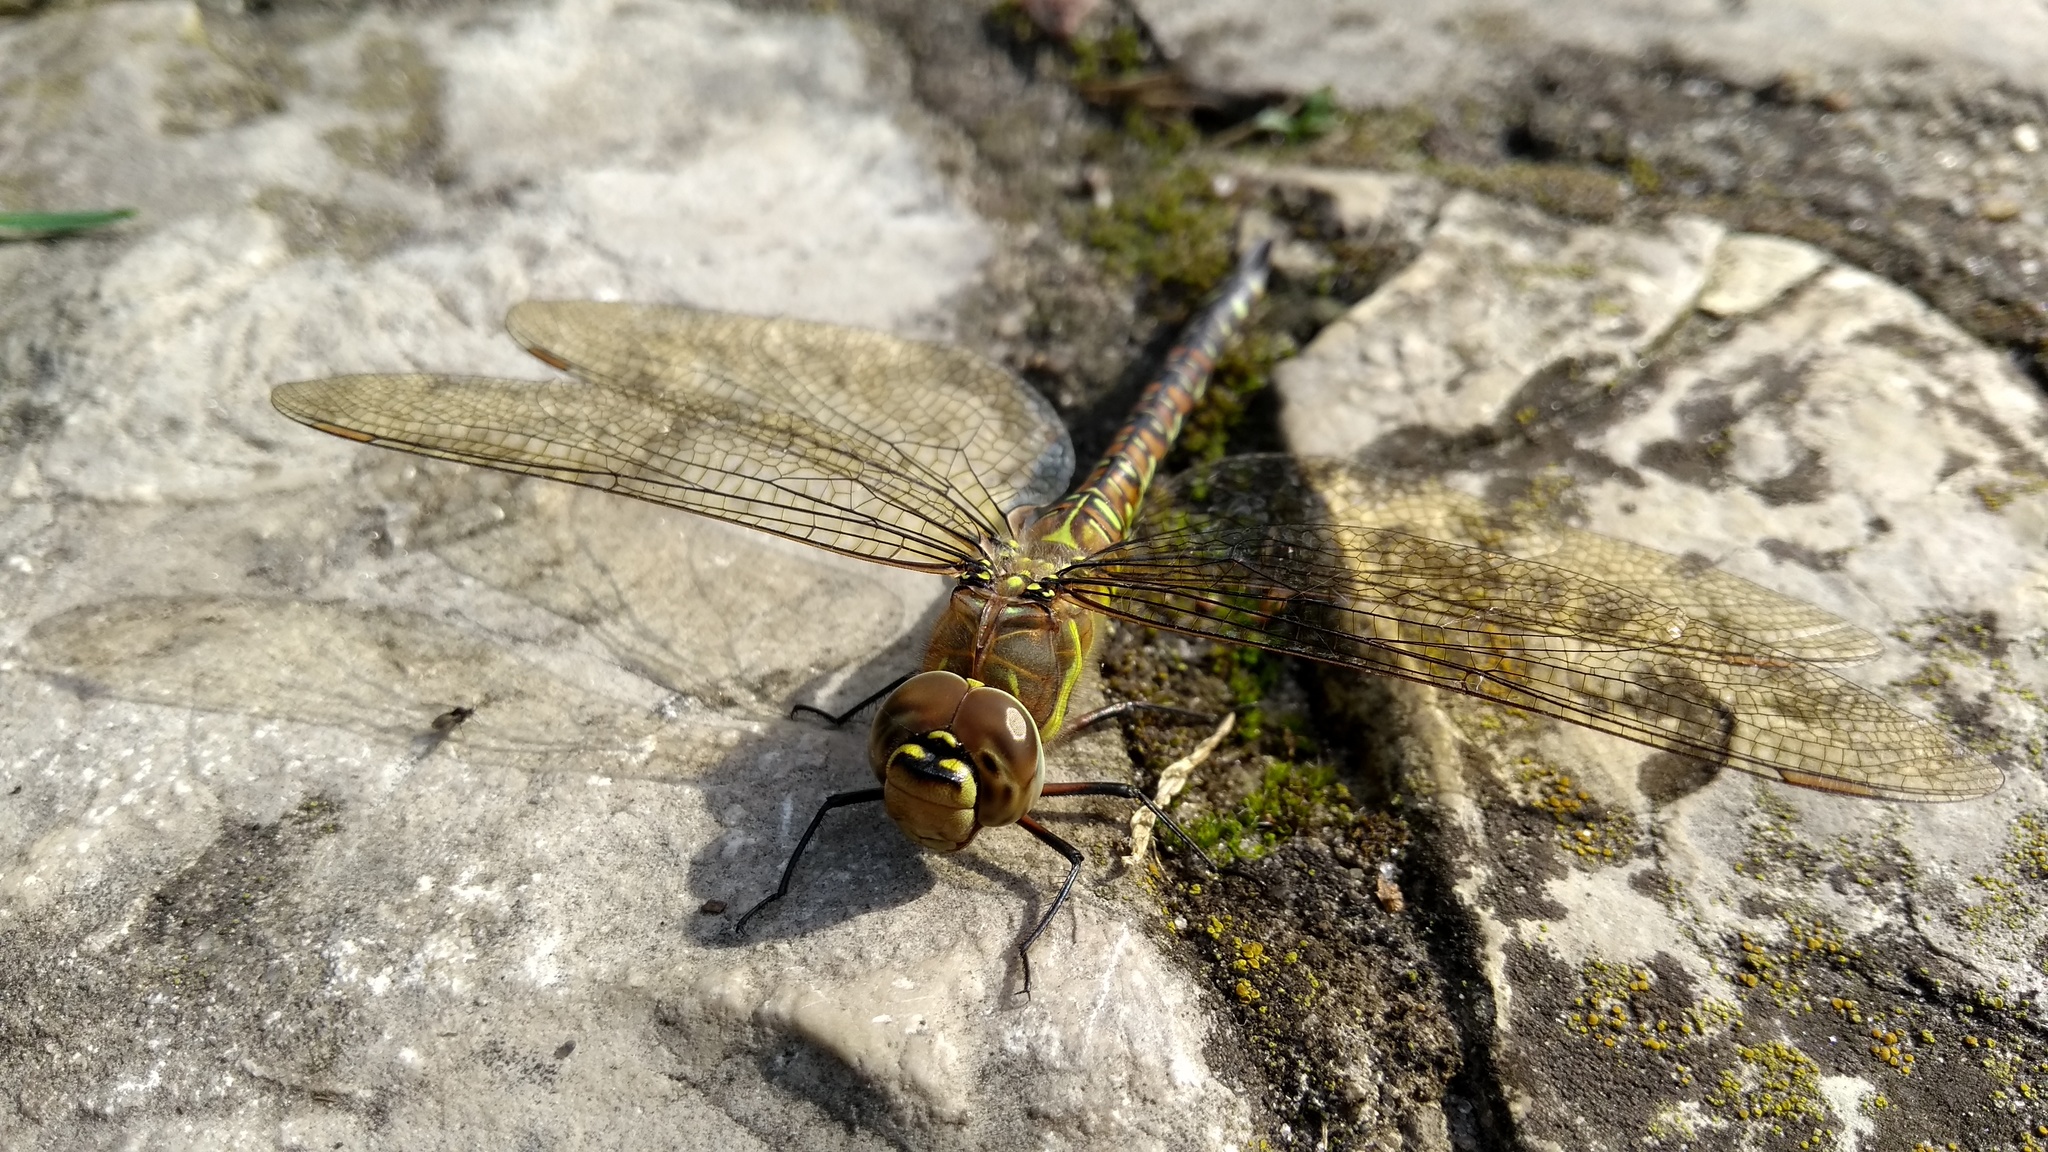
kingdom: Animalia
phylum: Arthropoda
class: Insecta
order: Odonata
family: Aeshnidae
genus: Aeshna
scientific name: Aeshna mixta
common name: Migrant hawker
